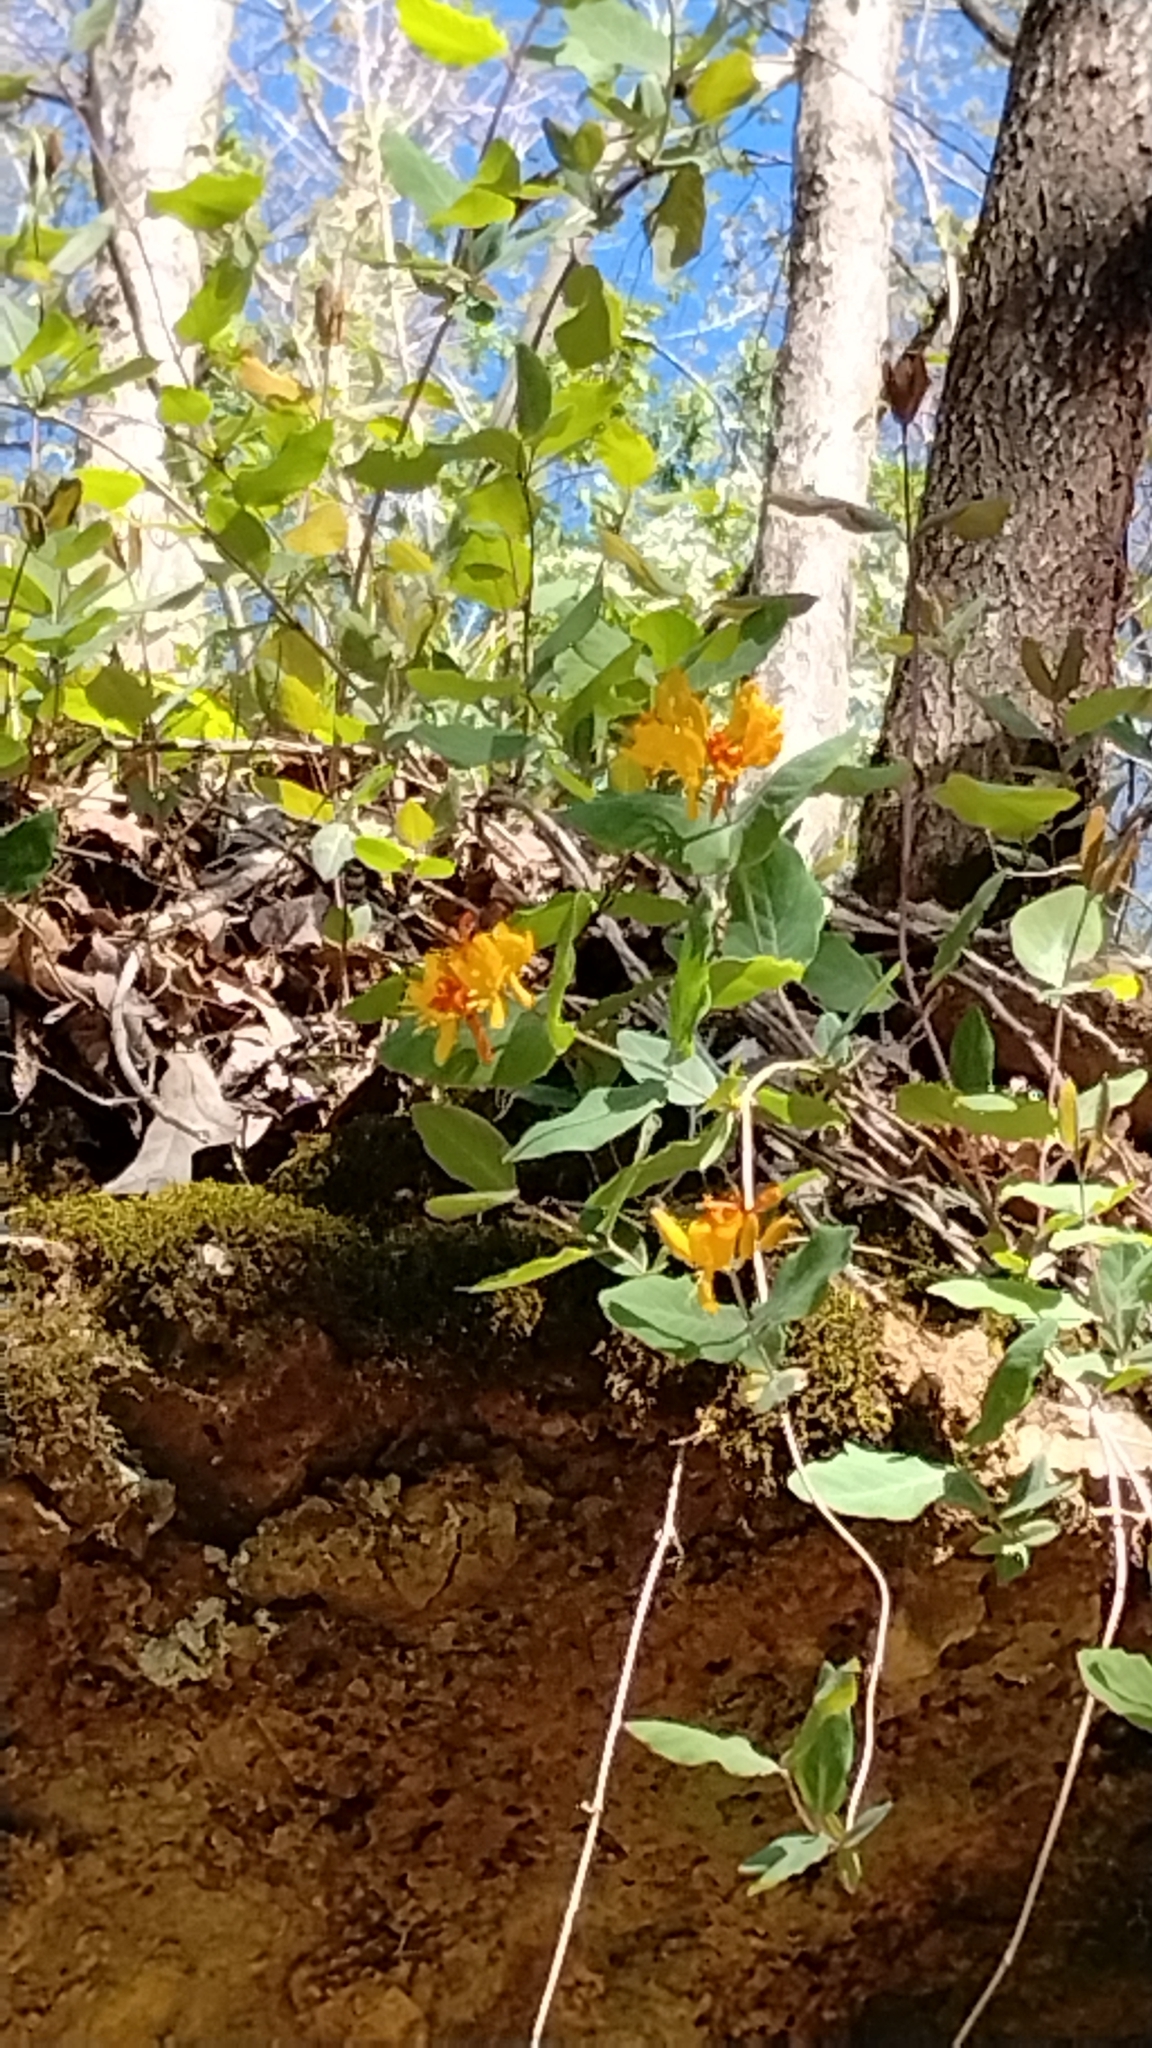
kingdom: Plantae
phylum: Tracheophyta
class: Magnoliopsida
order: Dipsacales
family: Caprifoliaceae
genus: Lonicera
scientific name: Lonicera flava
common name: Yellow honeysuckle
